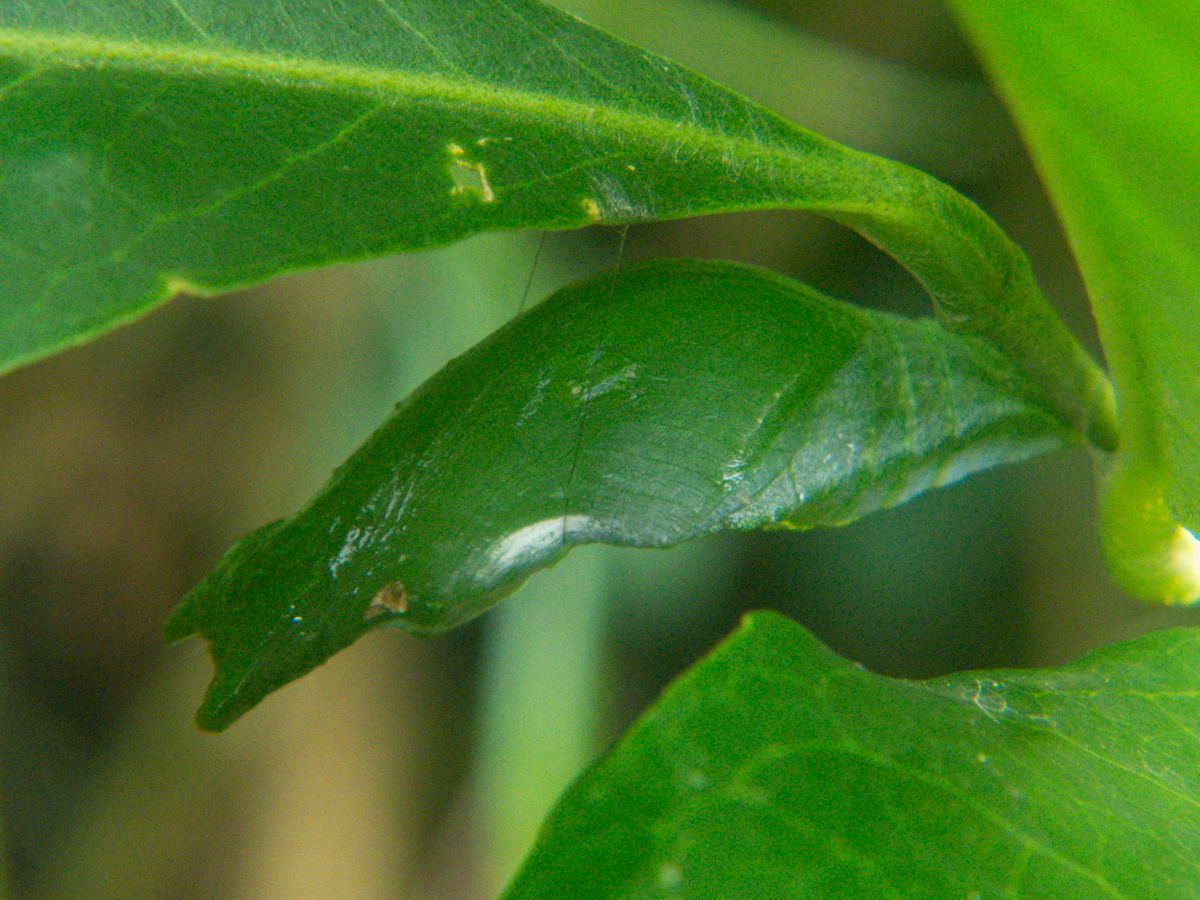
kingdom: Animalia
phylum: Arthropoda
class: Insecta
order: Lepidoptera
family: Papilionidae
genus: Papilio
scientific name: Papilio polytes
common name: Common mormon
